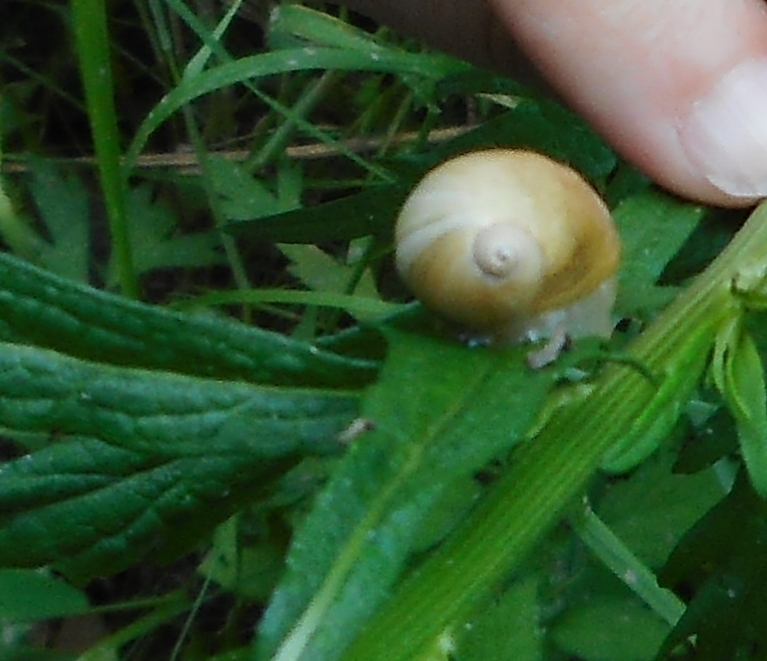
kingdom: Animalia
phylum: Mollusca
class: Gastropoda
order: Stylommatophora
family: Succineidae
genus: Succinea
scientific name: Succinea lauta
